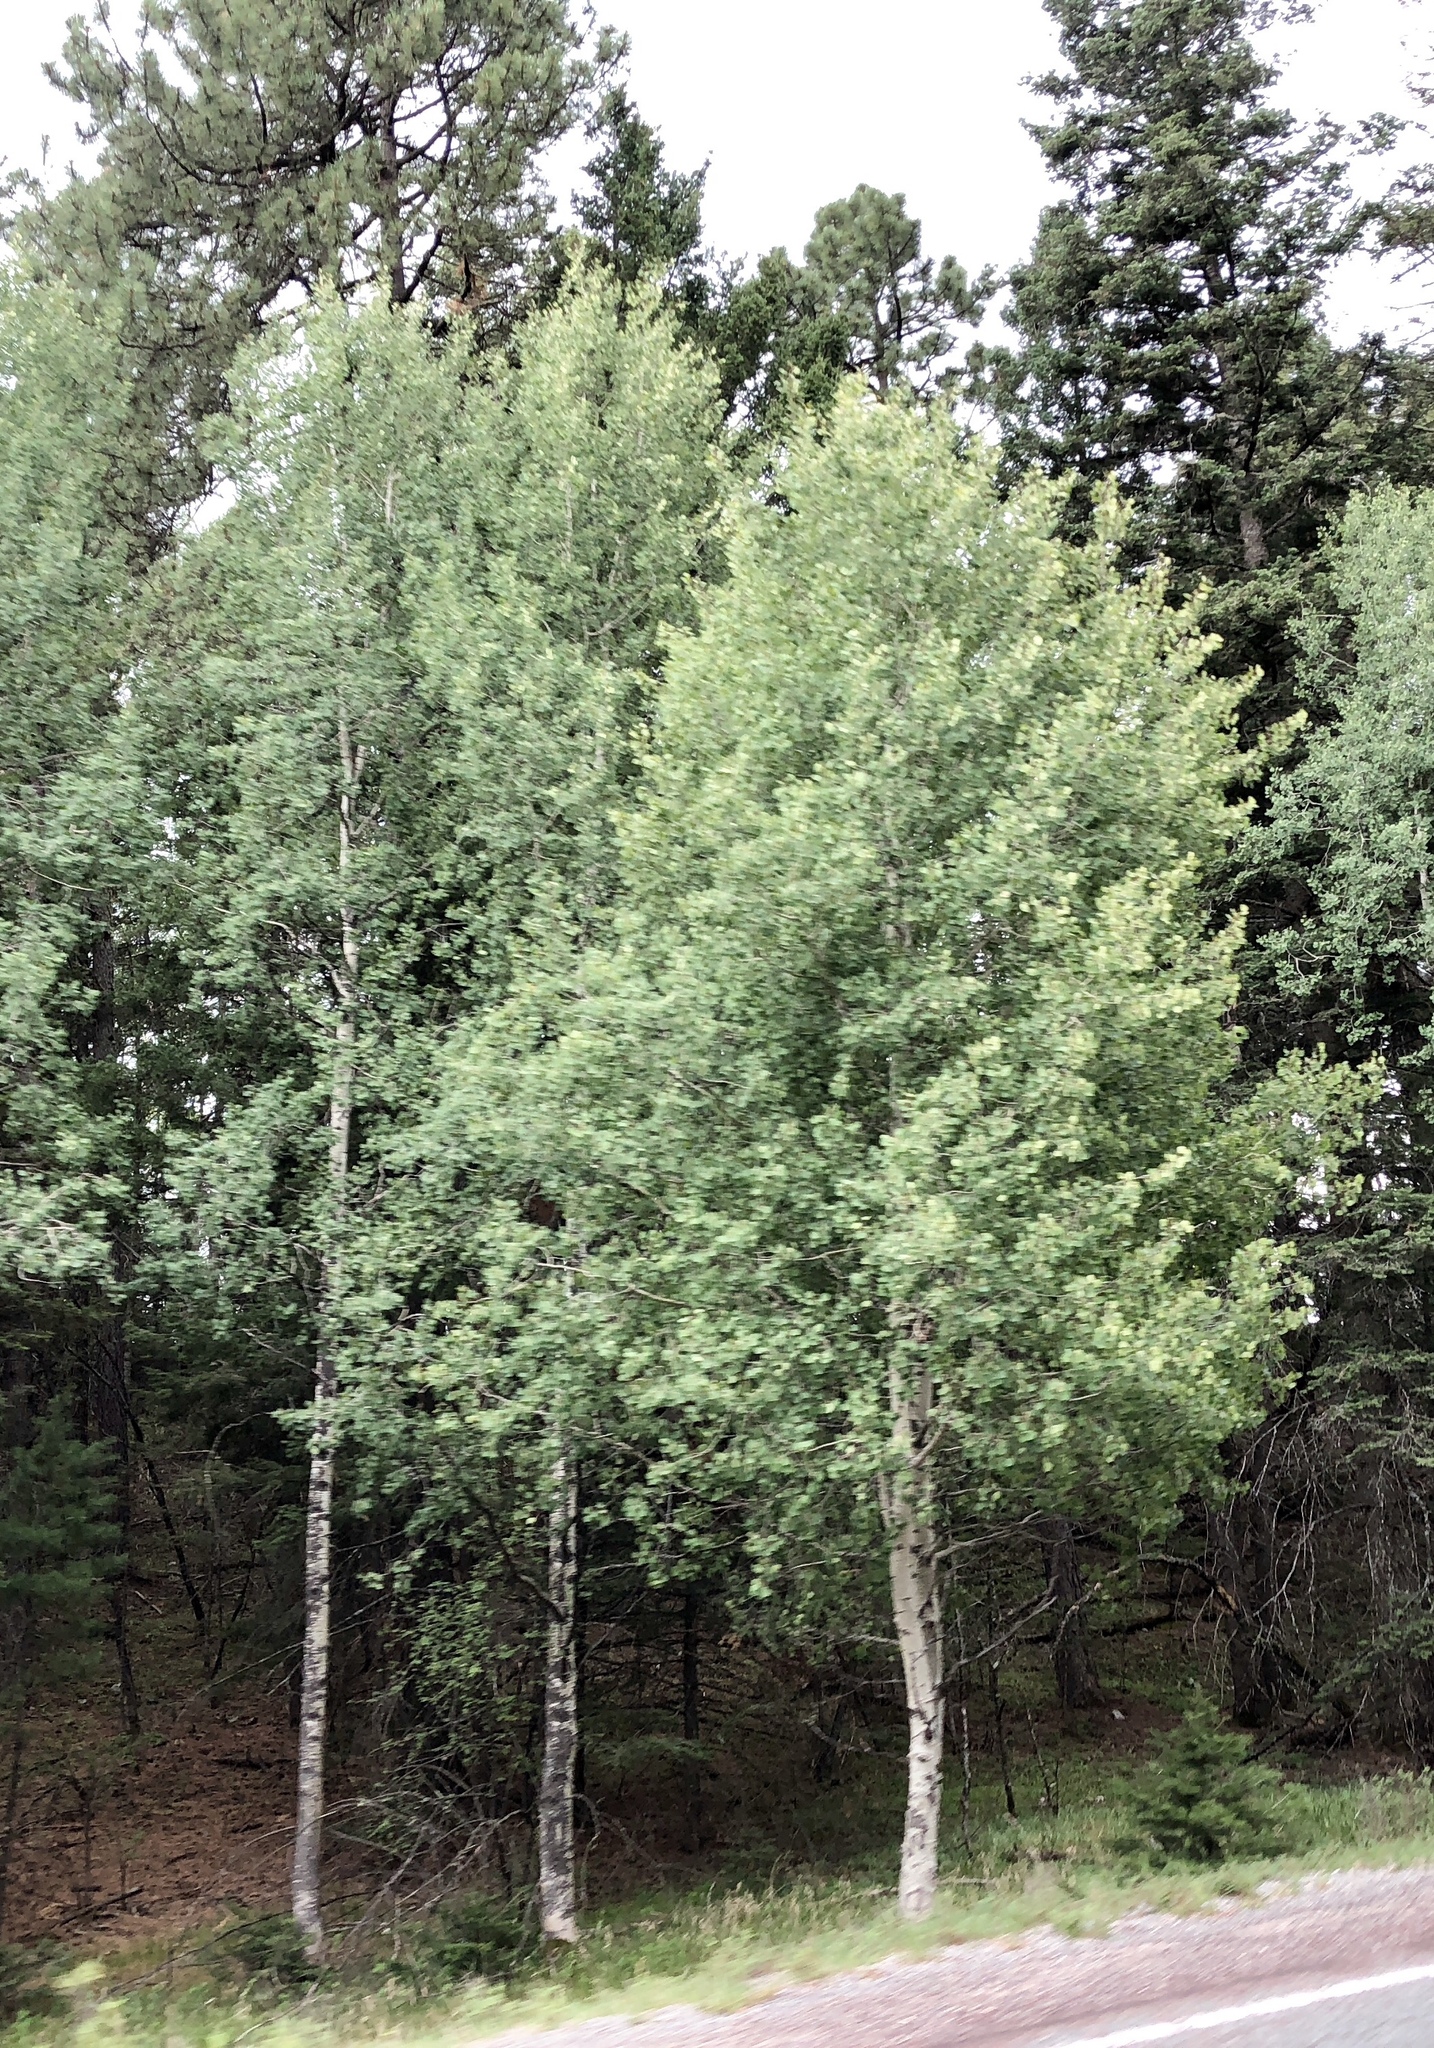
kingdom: Plantae
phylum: Tracheophyta
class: Magnoliopsida
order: Malpighiales
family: Salicaceae
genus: Populus
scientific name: Populus tremuloides
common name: Quaking aspen
